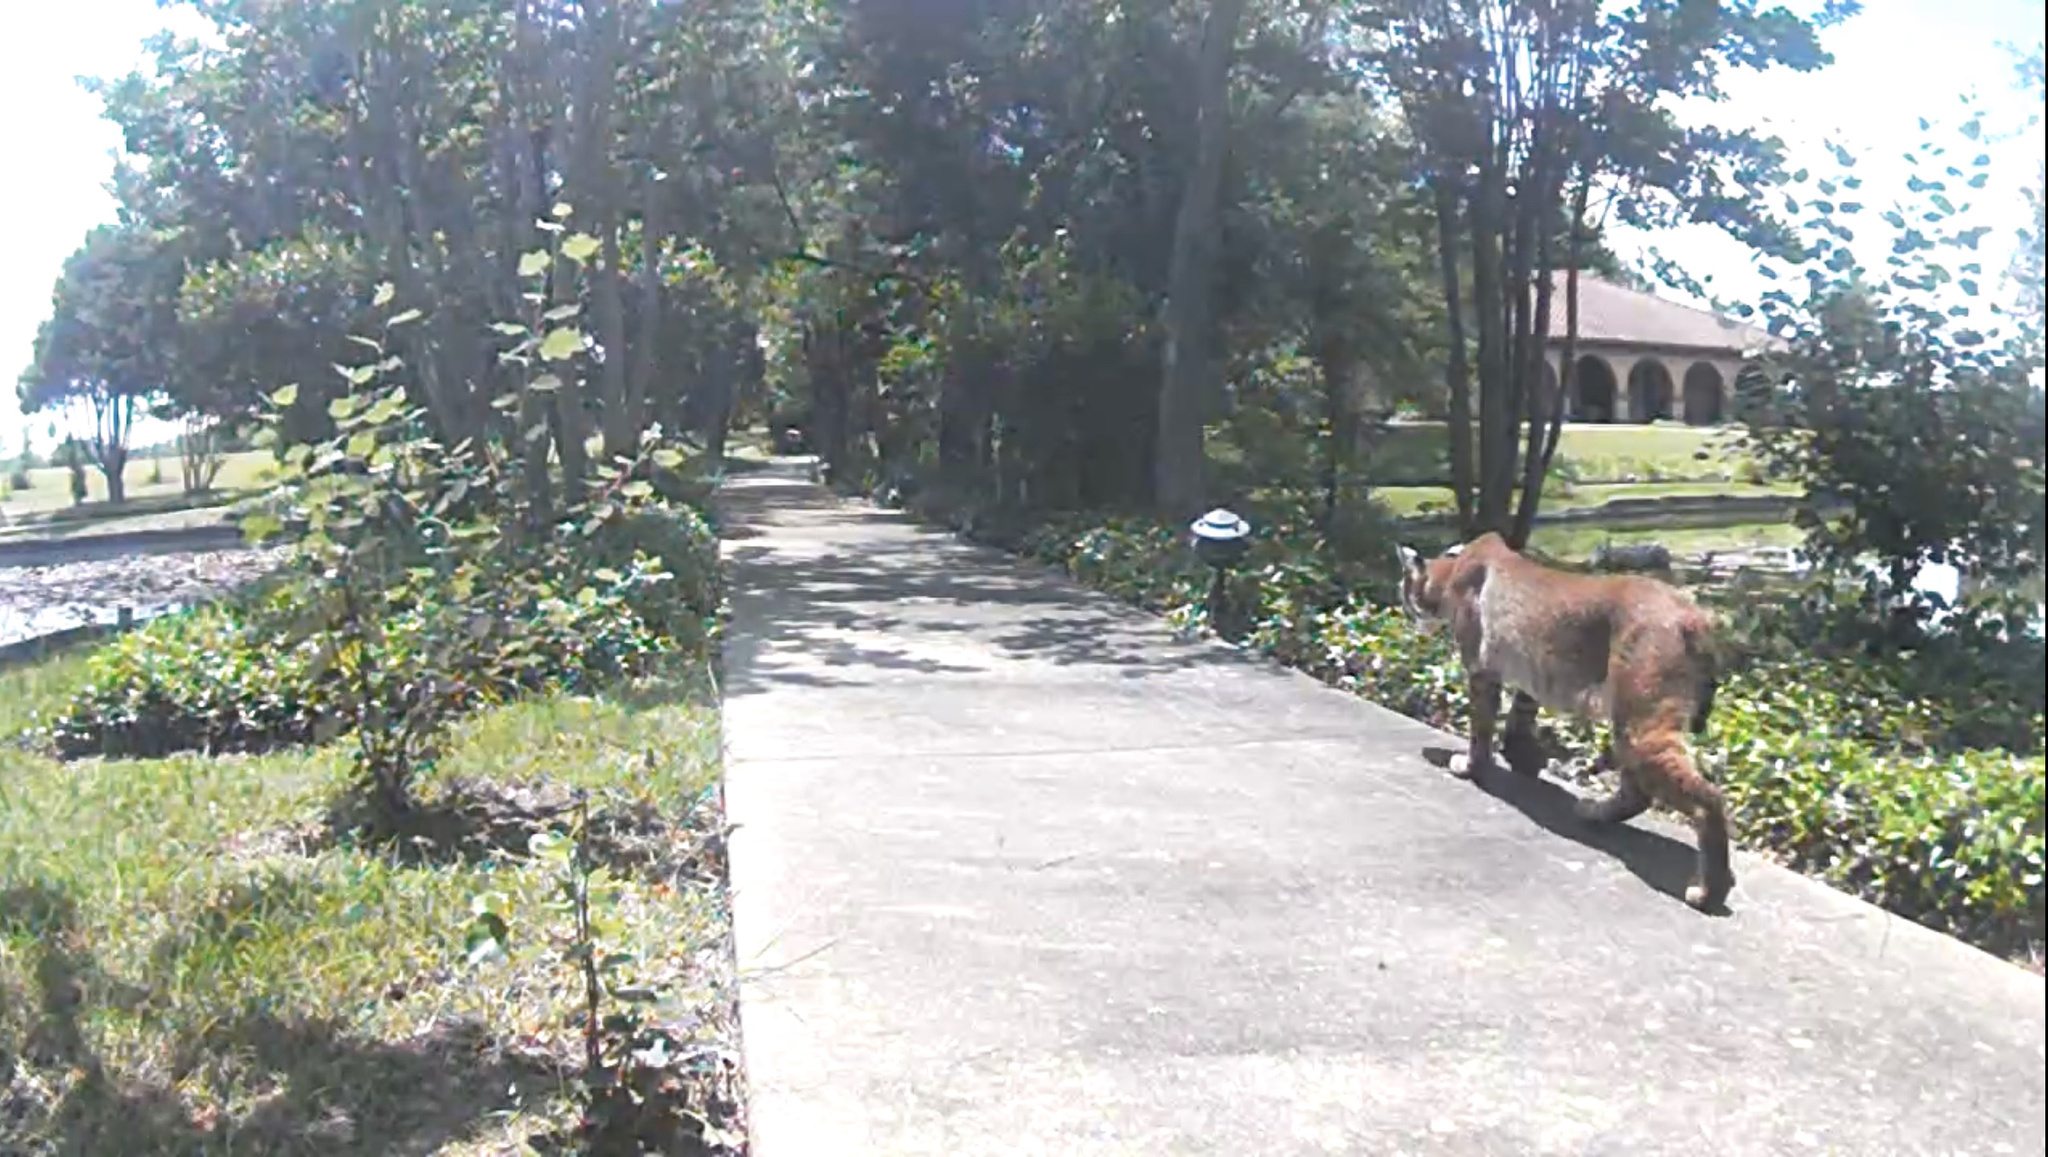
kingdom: Animalia
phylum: Chordata
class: Mammalia
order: Carnivora
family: Felidae
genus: Lynx
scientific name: Lynx rufus
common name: Bobcat
